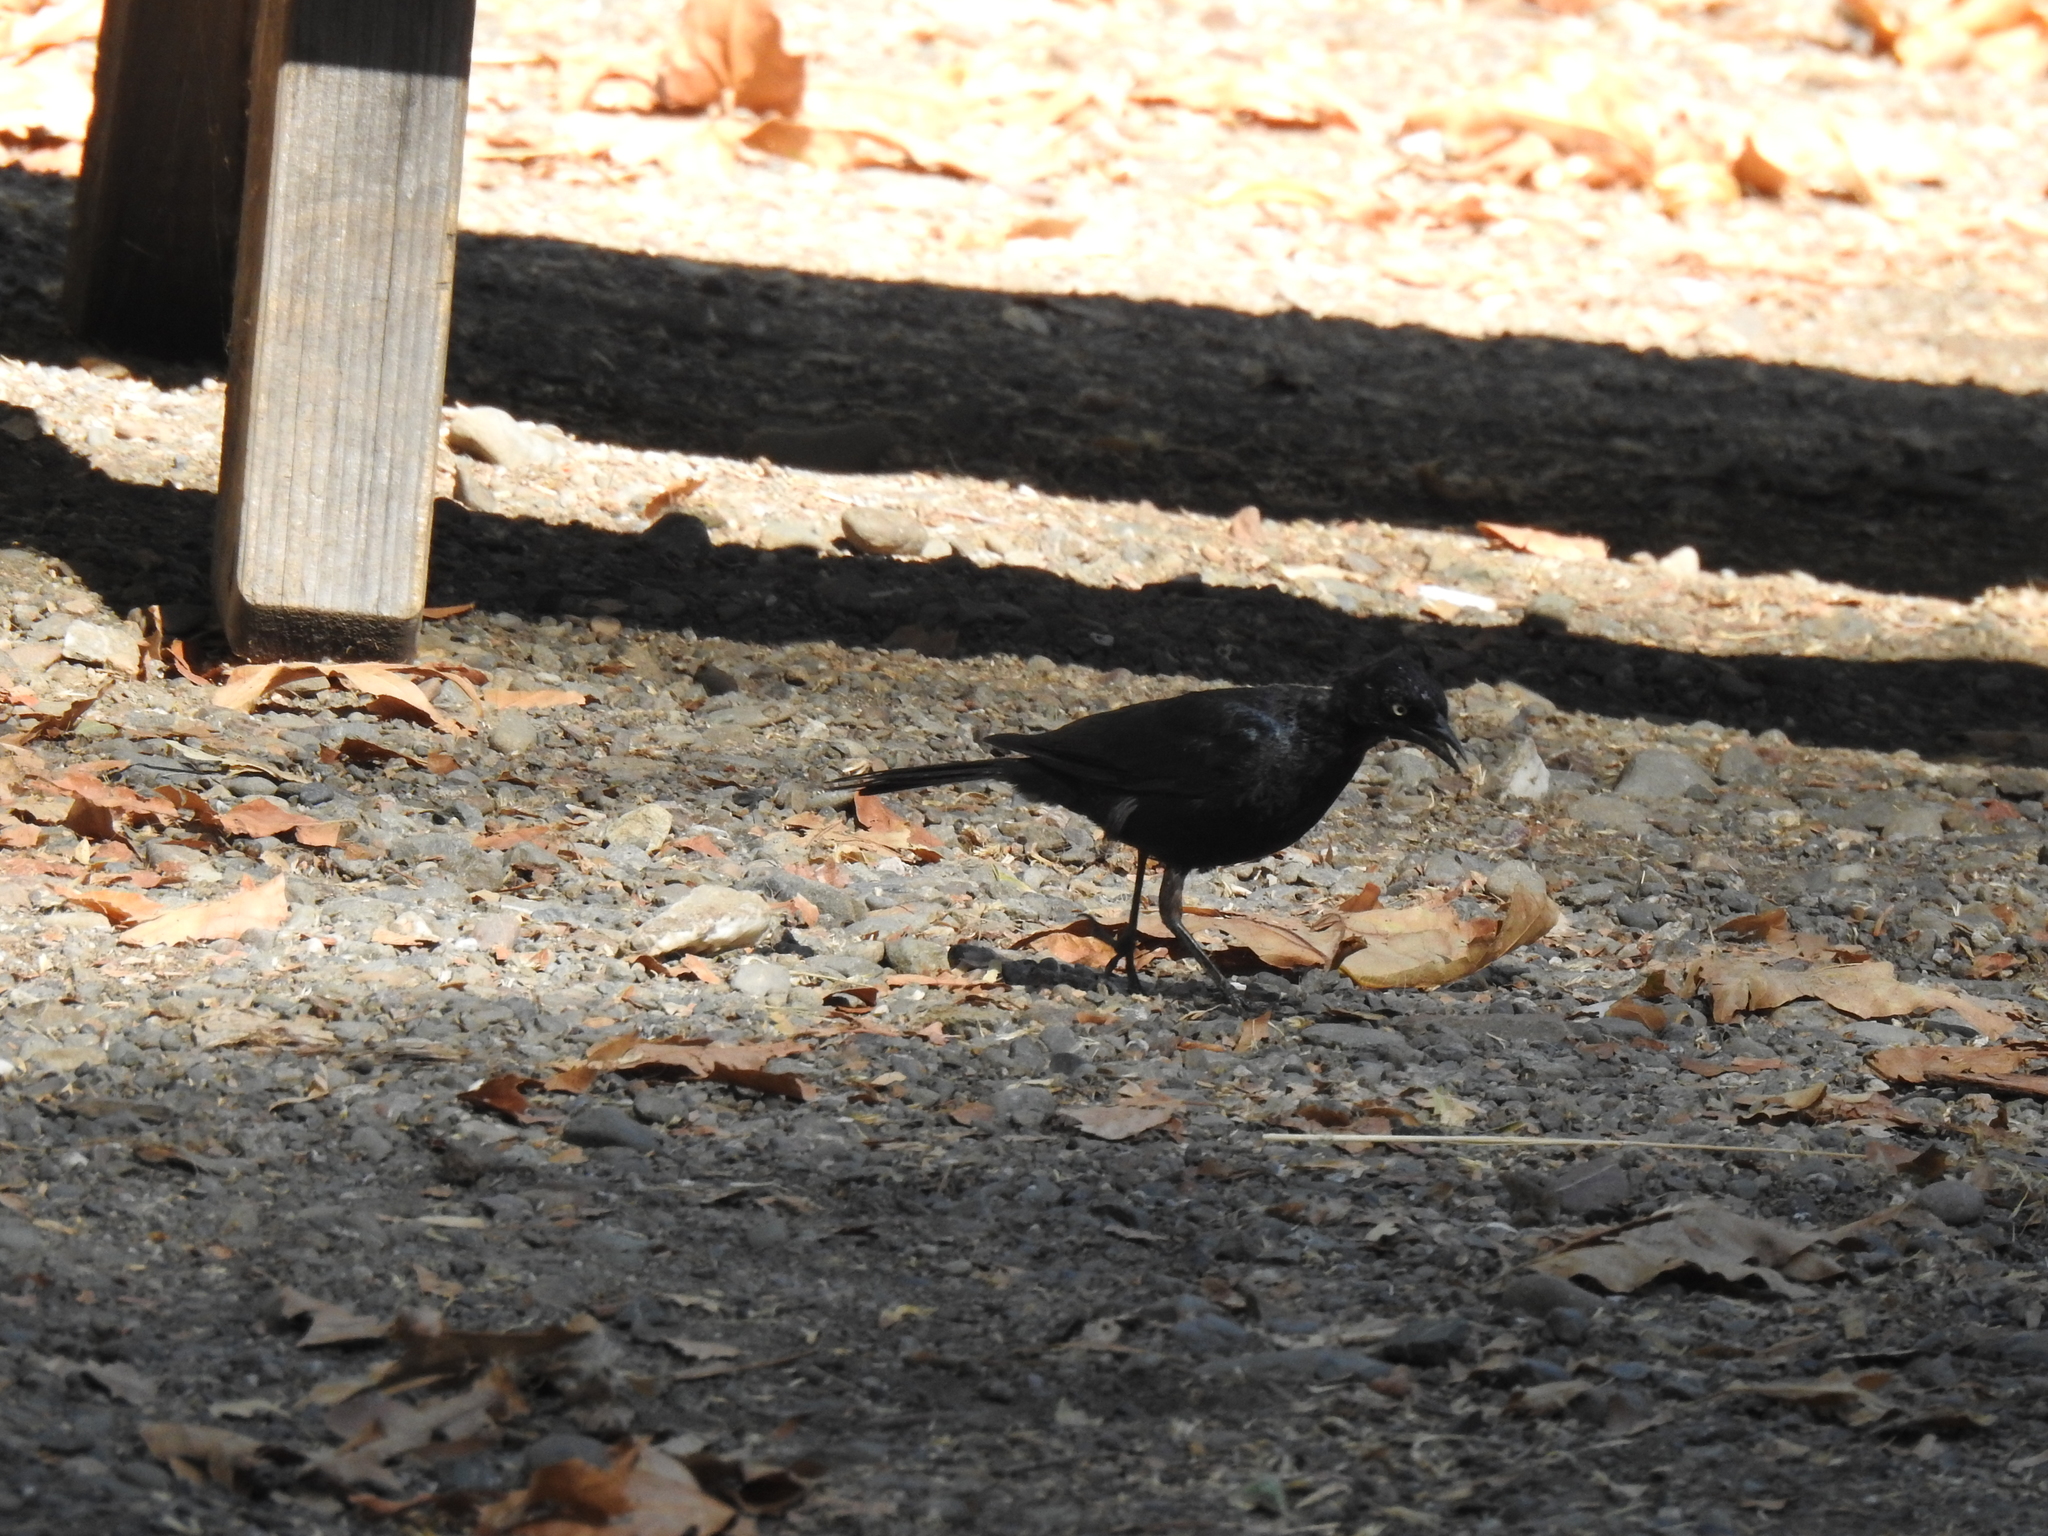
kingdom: Animalia
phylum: Chordata
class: Aves
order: Passeriformes
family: Icteridae
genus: Euphagus
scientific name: Euphagus cyanocephalus
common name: Brewer's blackbird
